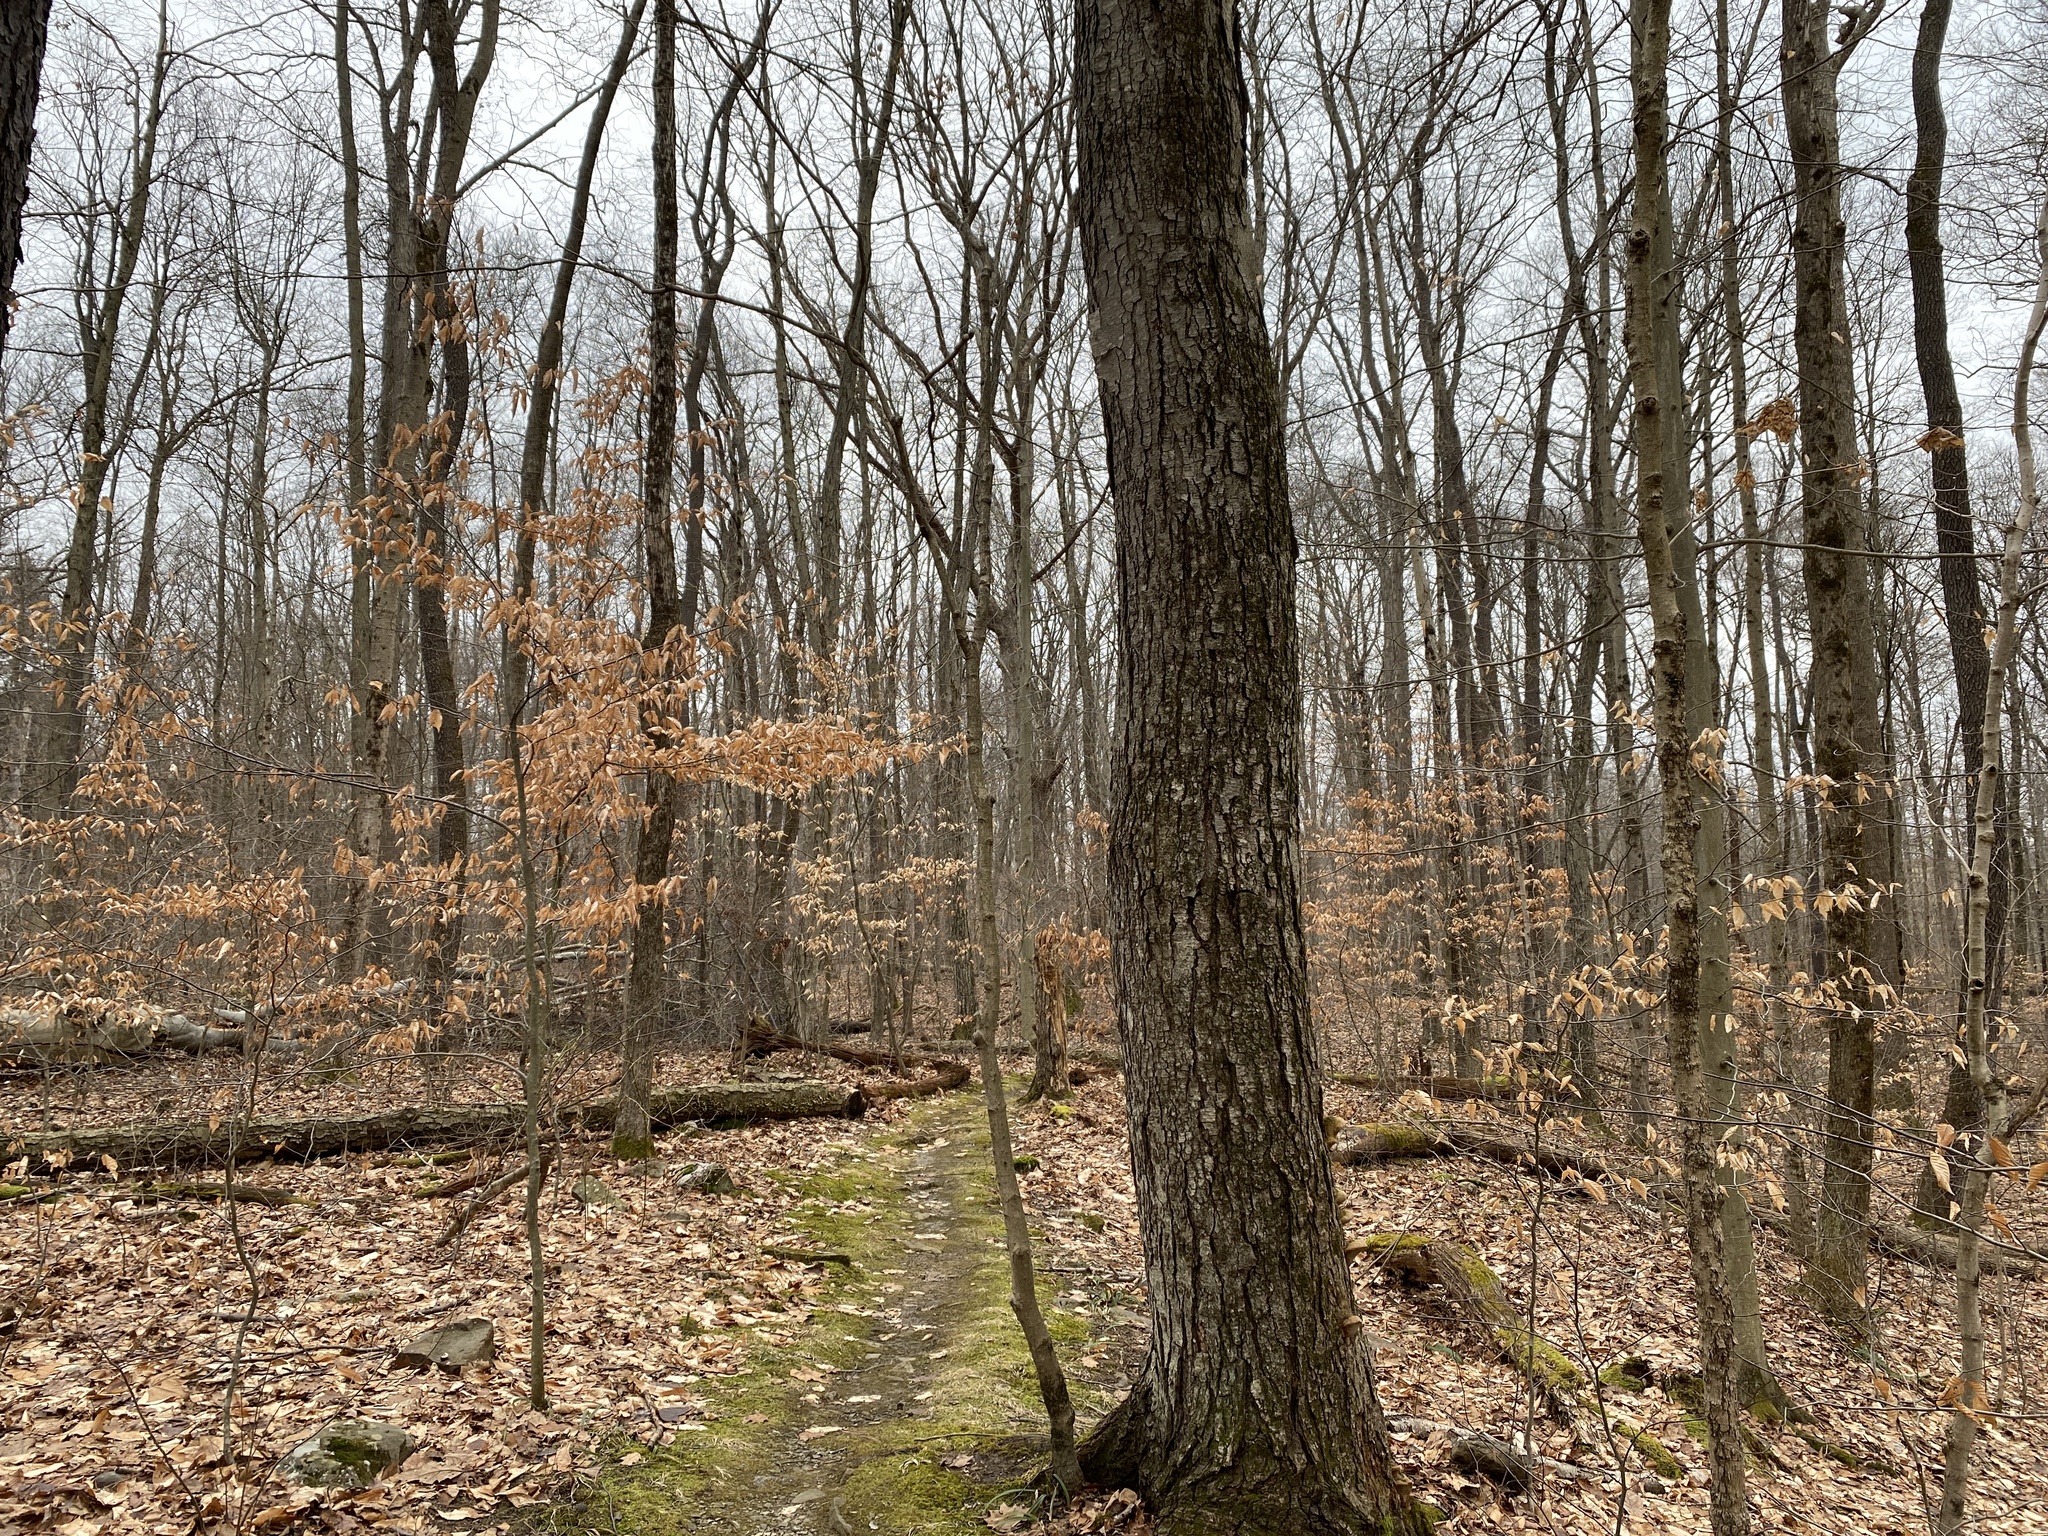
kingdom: Plantae
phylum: Tracheophyta
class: Magnoliopsida
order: Fagales
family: Fagaceae
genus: Fagus
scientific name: Fagus grandifolia
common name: American beech
